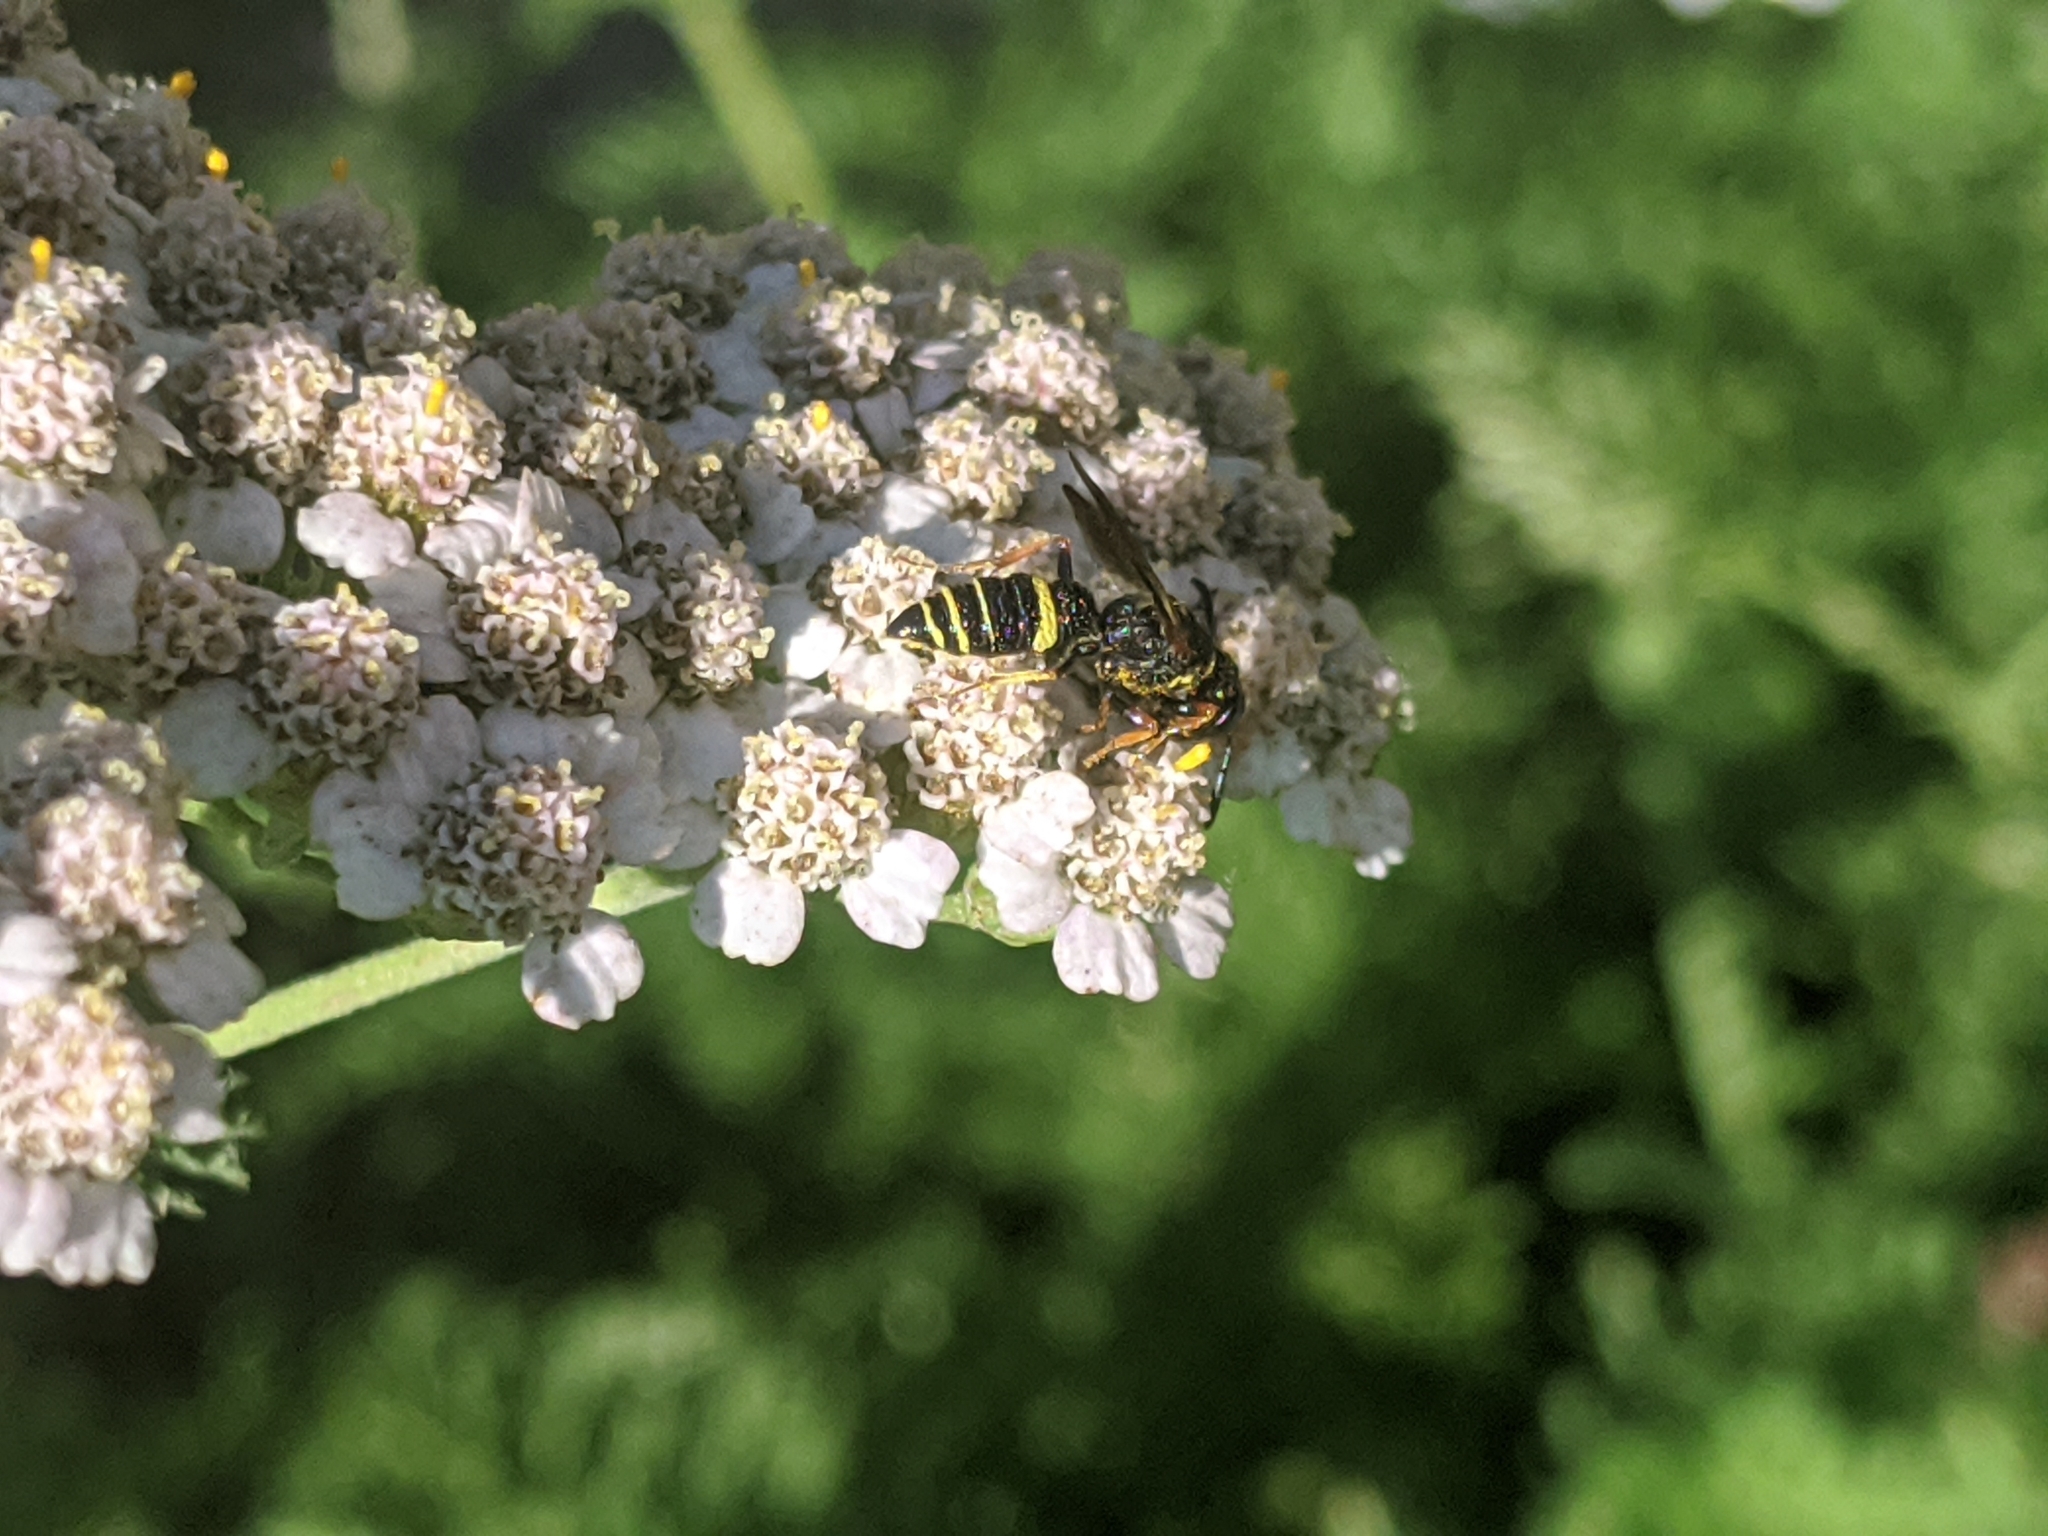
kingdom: Animalia
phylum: Arthropoda
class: Insecta
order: Hymenoptera
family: Crabronidae
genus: Philanthus
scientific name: Philanthus gibbosus
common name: Humped beewolf
